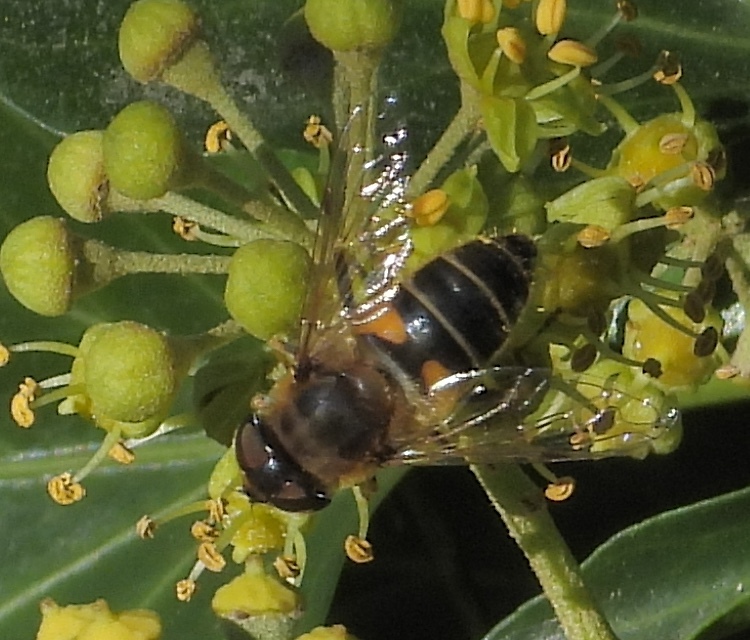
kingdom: Animalia
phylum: Arthropoda
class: Insecta
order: Diptera
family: Syrphidae
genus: Eoseristalis
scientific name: Eoseristalis
